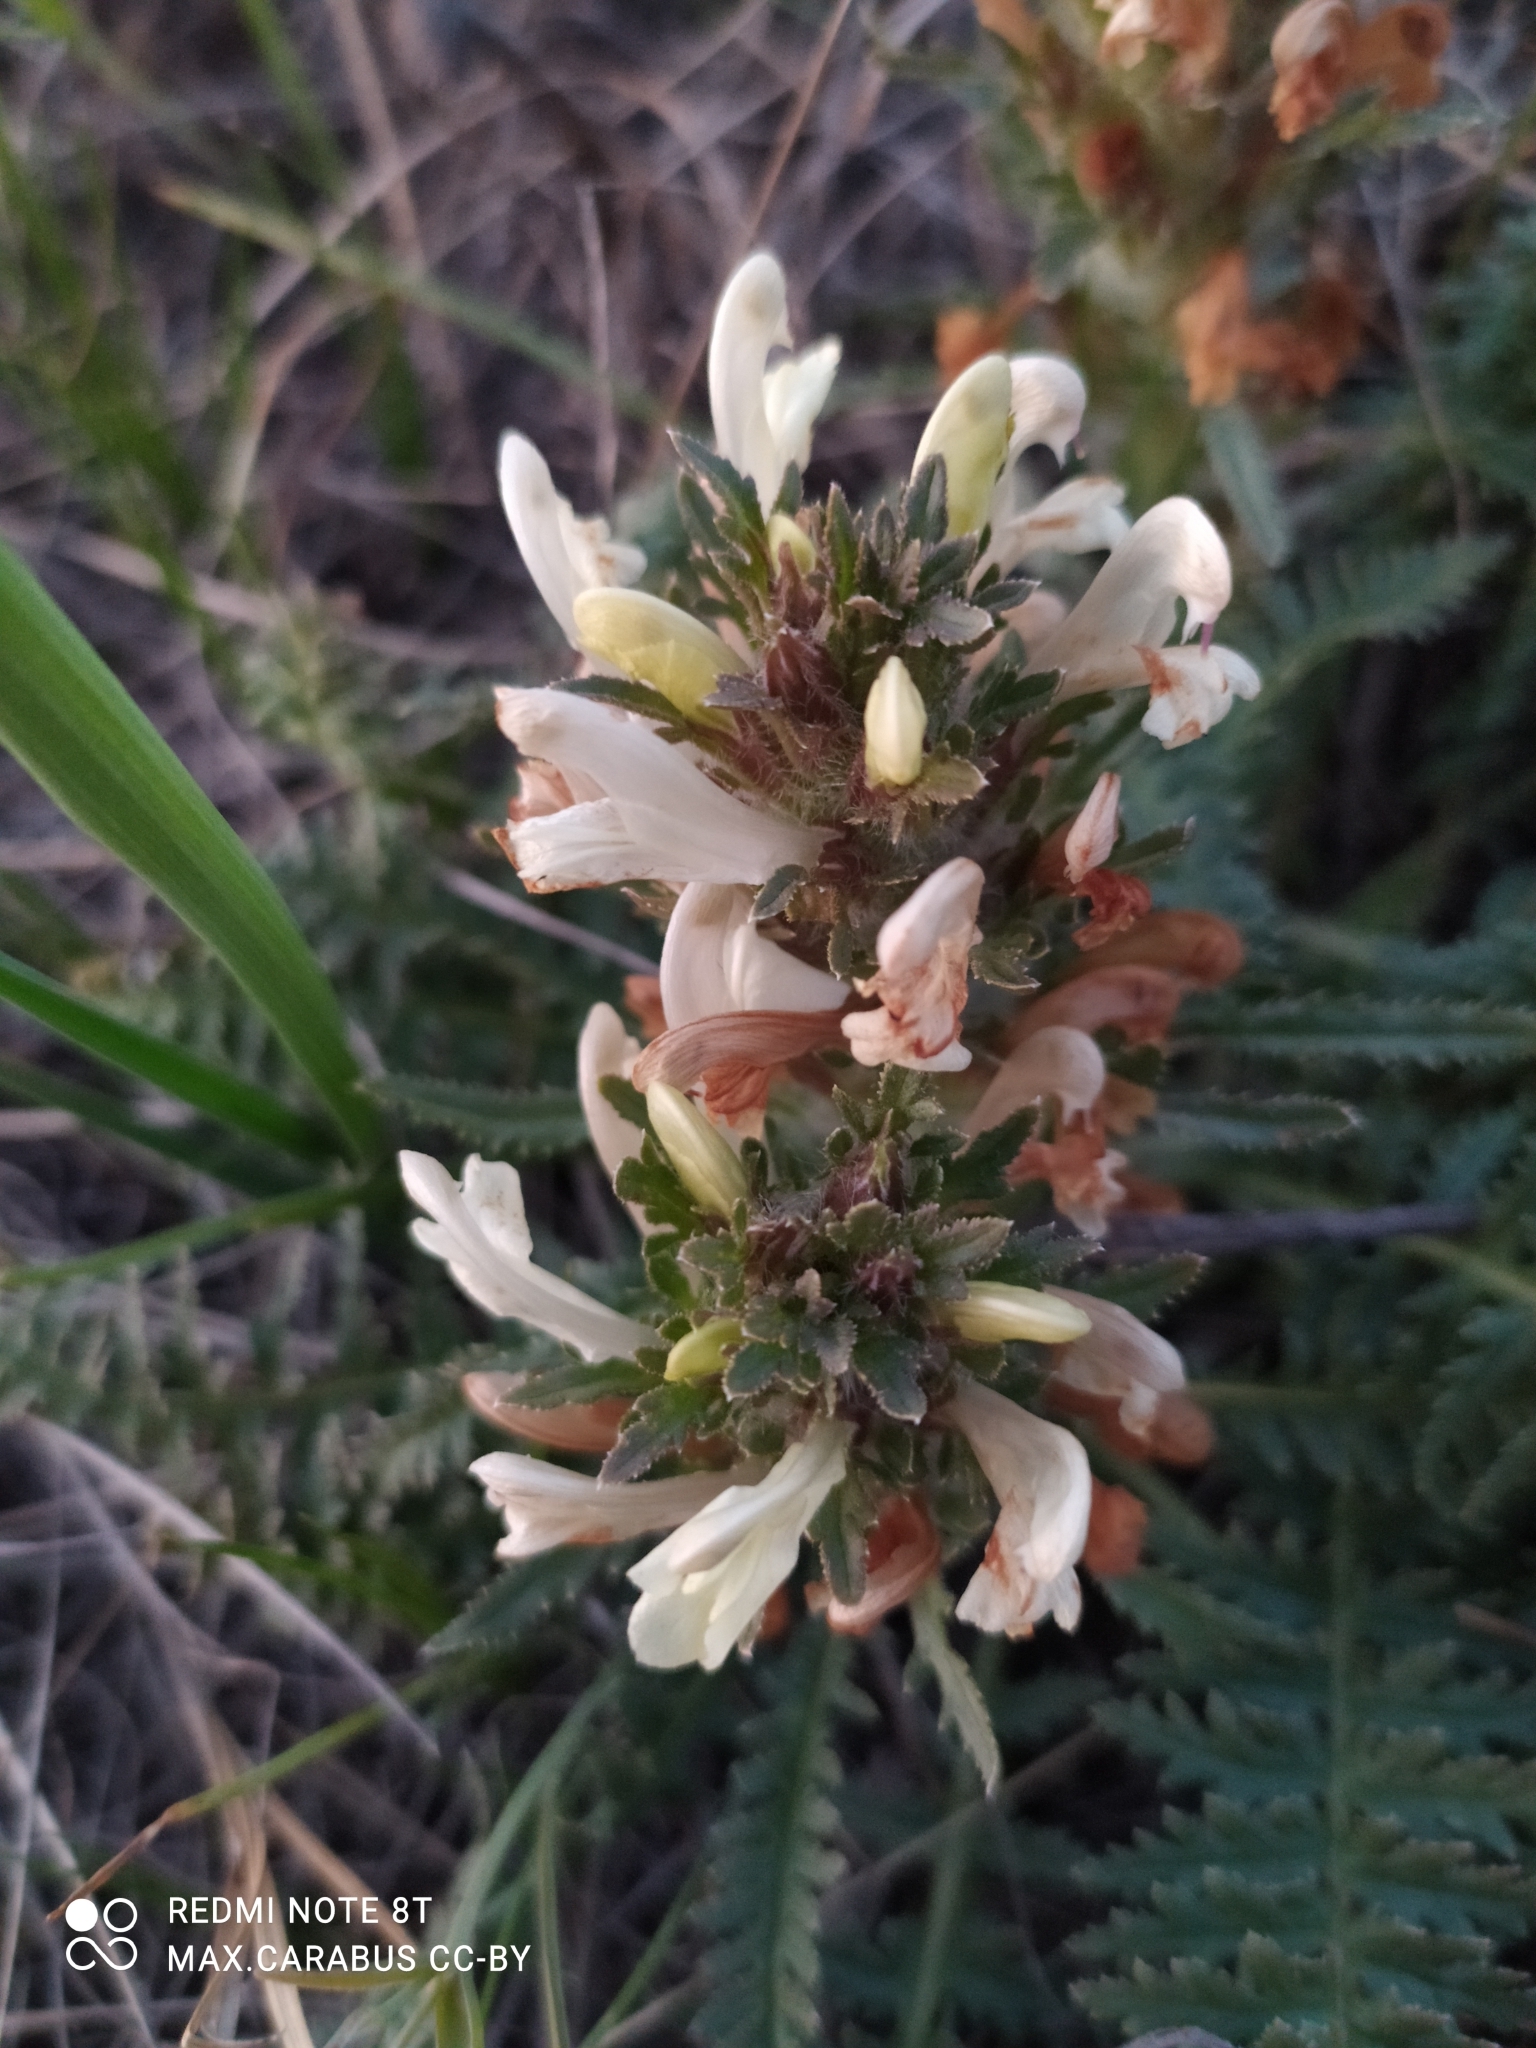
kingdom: Plantae
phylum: Tracheophyta
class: Magnoliopsida
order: Lamiales
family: Orobanchaceae
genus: Pedicularis
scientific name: Pedicularis physocalyx
